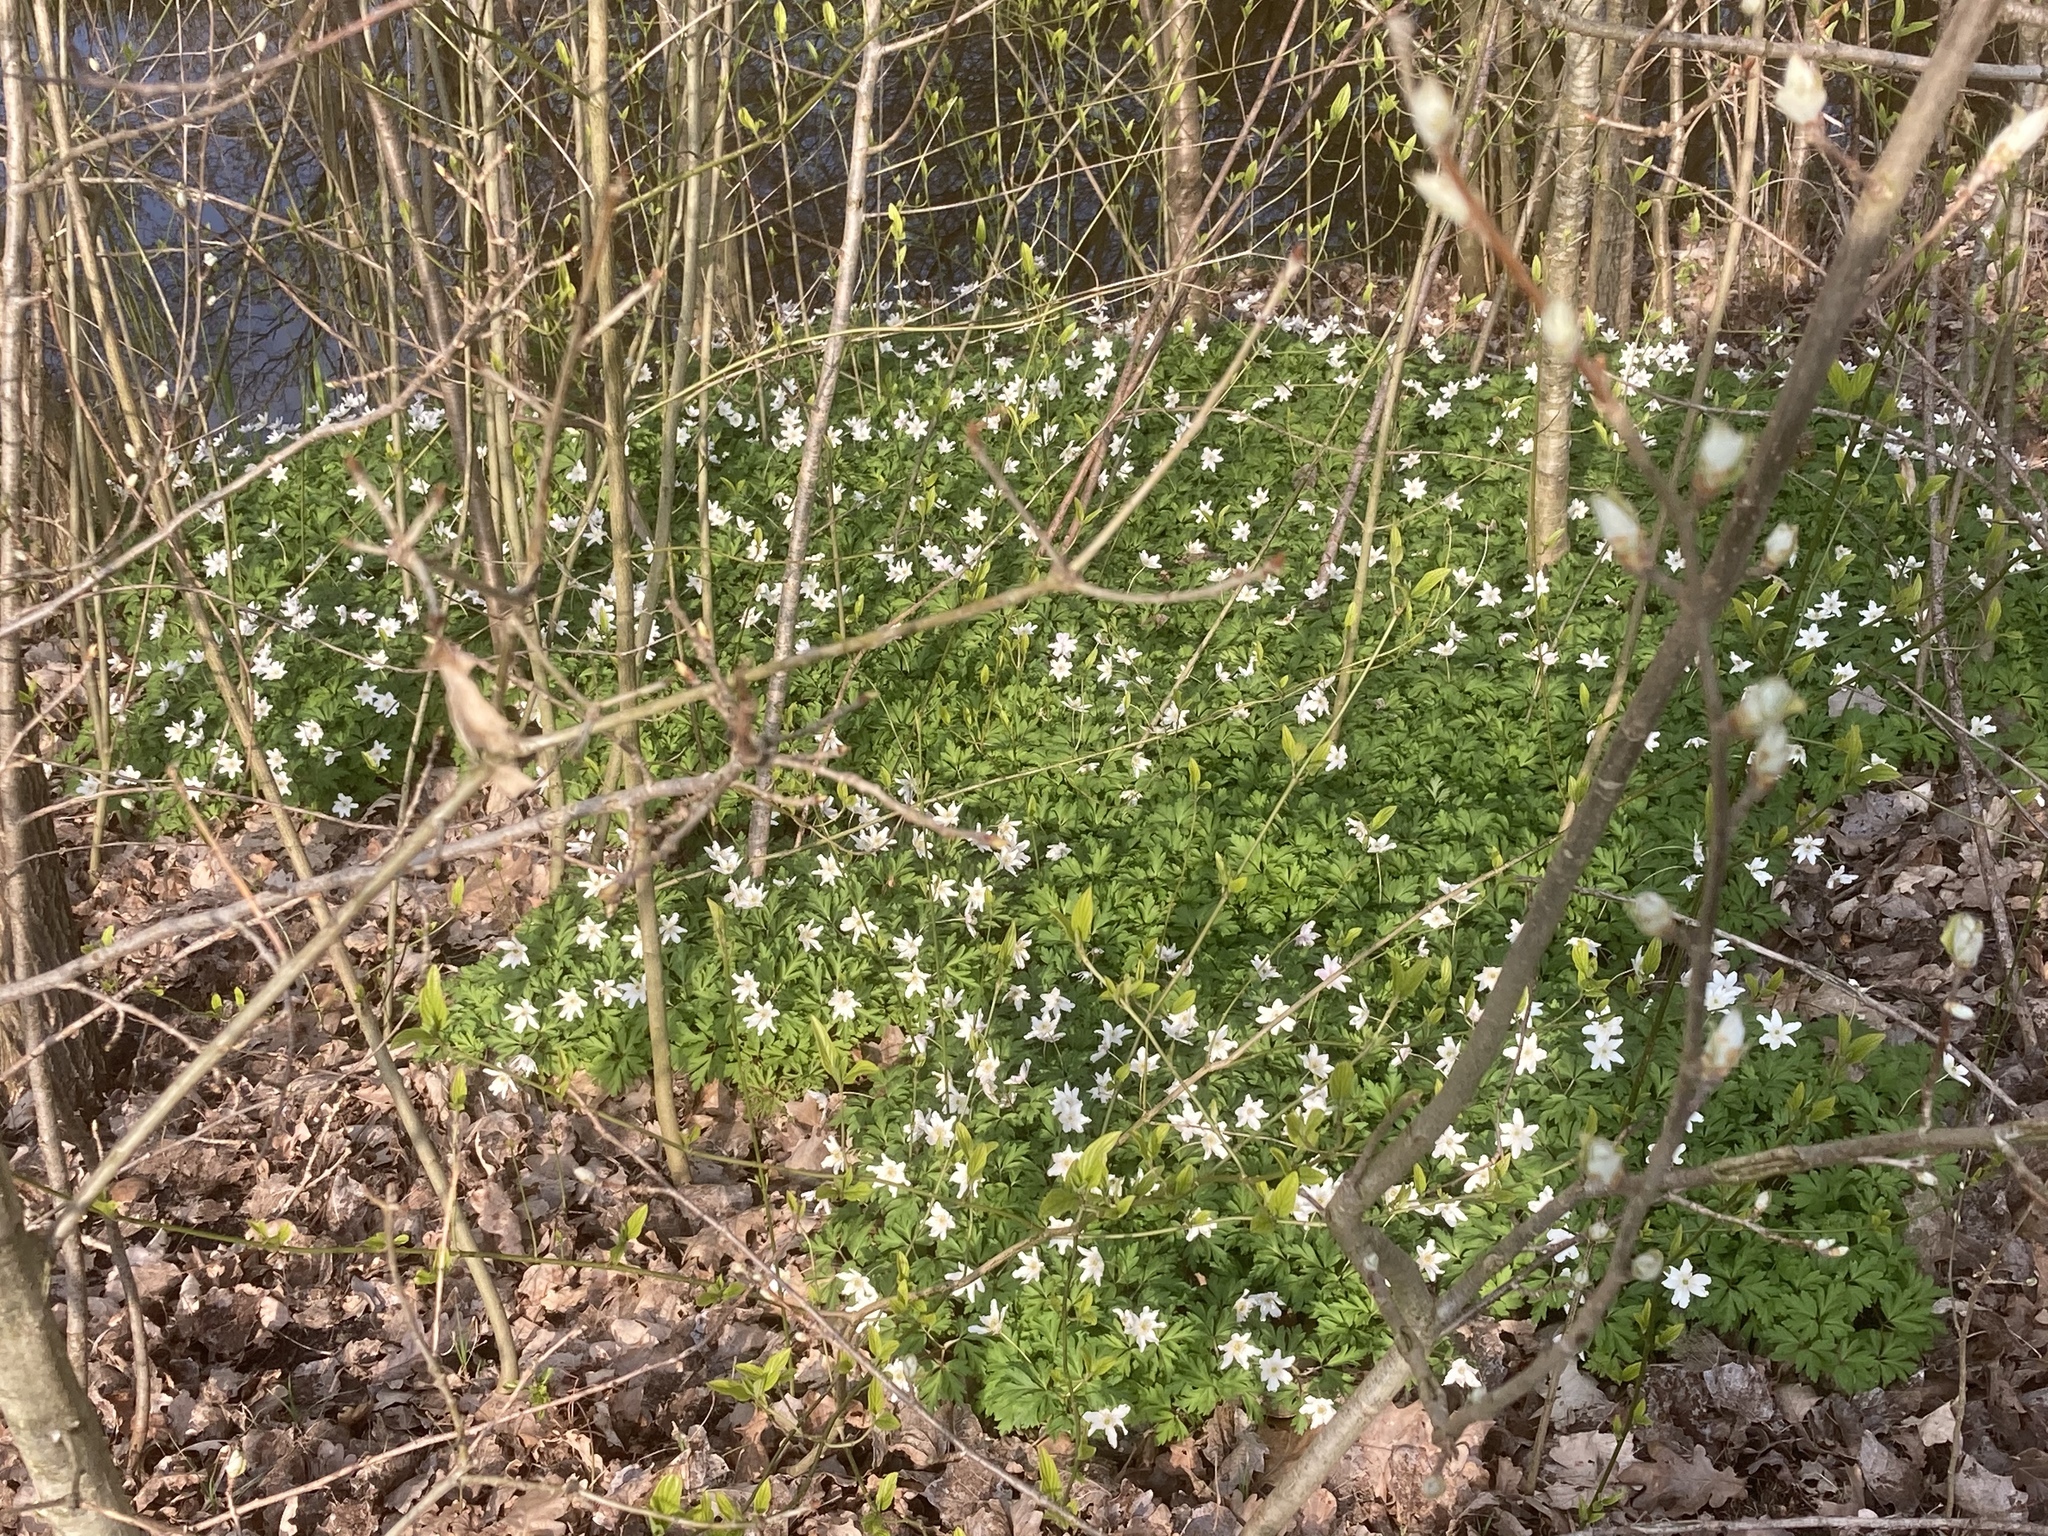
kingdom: Plantae
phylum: Tracheophyta
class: Magnoliopsida
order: Ranunculales
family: Ranunculaceae
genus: Anemone
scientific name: Anemone nemorosa
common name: Wood anemone
